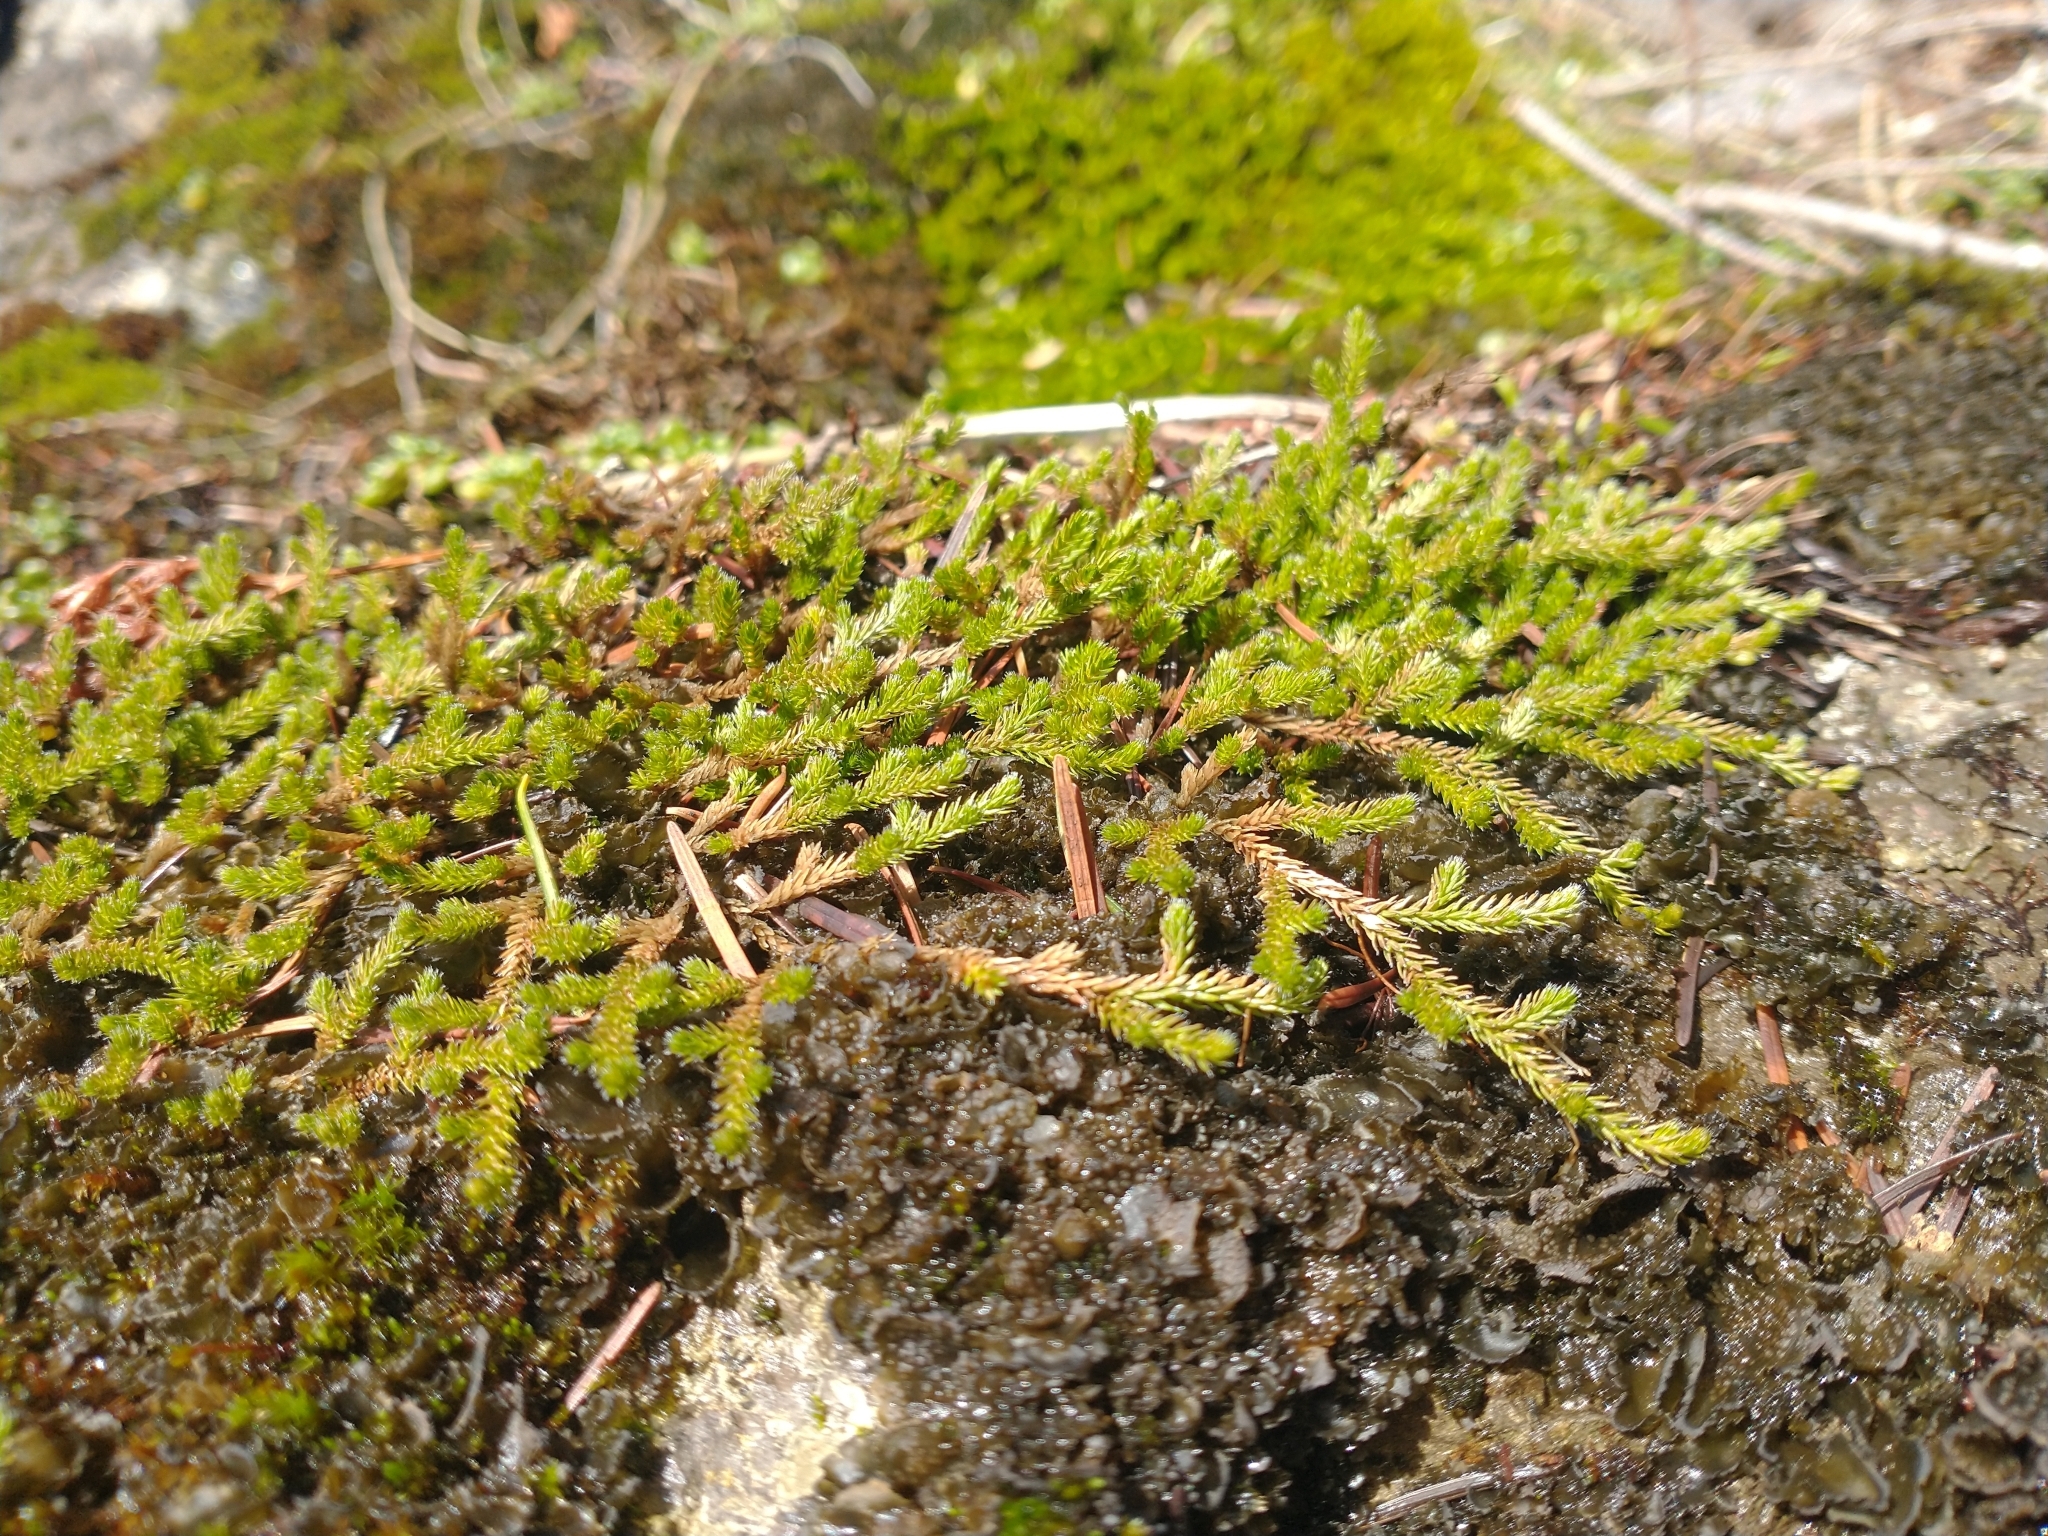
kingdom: Plantae
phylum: Tracheophyta
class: Lycopodiopsida
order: Selaginellales
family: Selaginellaceae
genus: Selaginella
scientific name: Selaginella wallacei
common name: Wallace's selaginella
